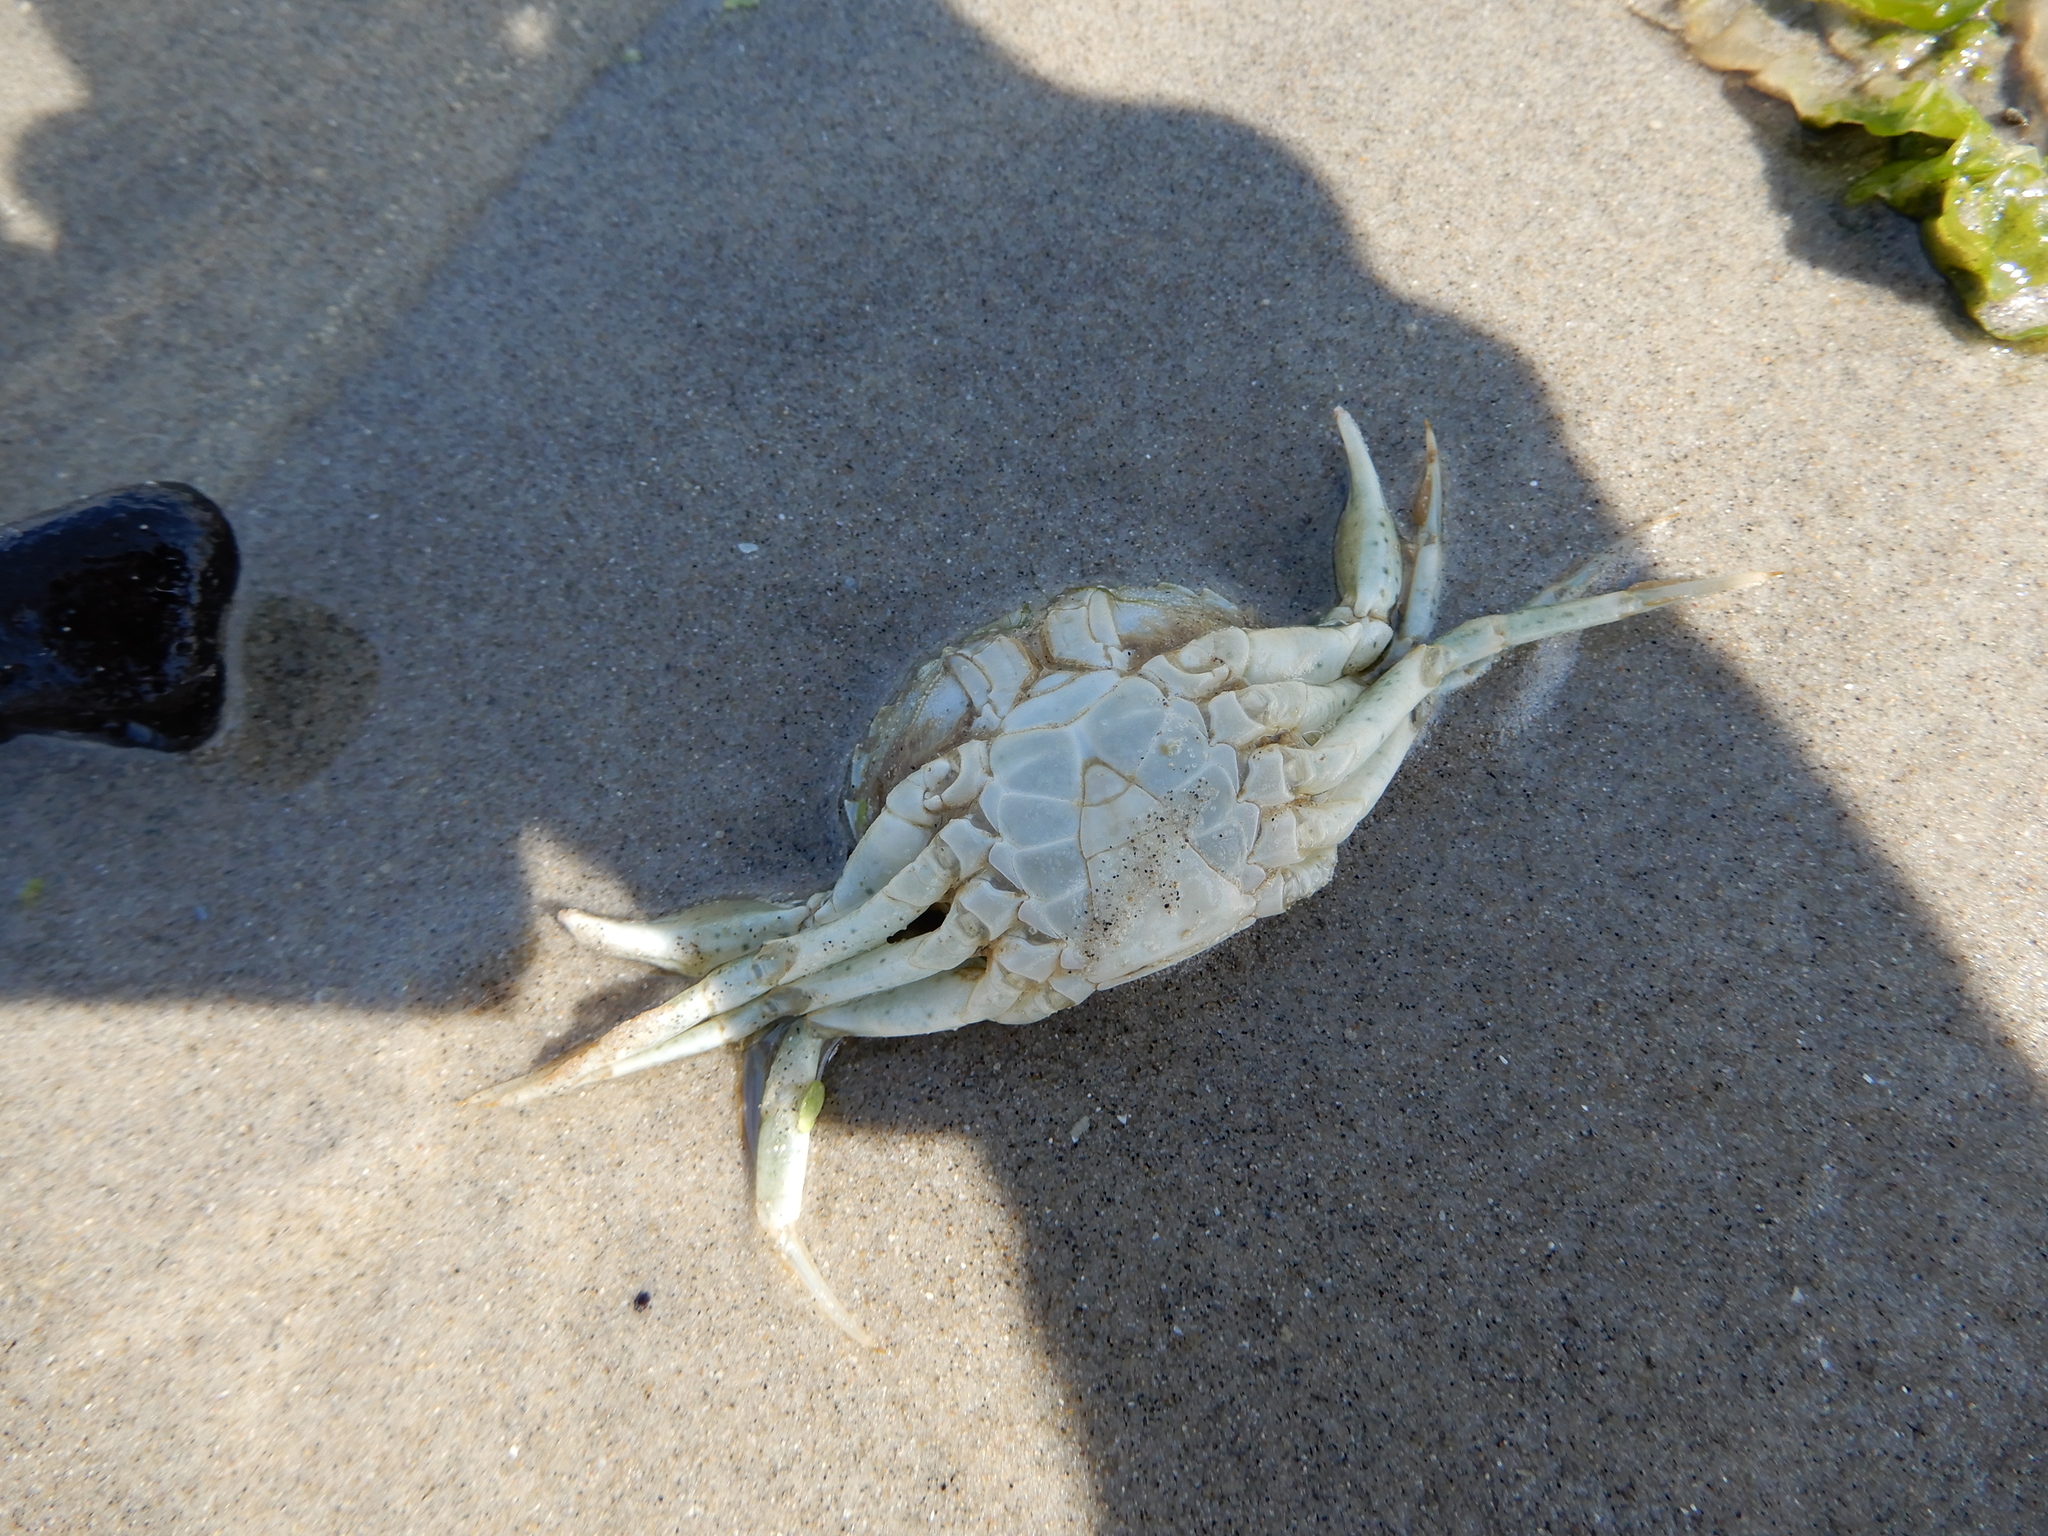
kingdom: Animalia
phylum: Arthropoda
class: Malacostraca
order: Decapoda
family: Carcinidae
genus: Carcinus
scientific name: Carcinus maenas
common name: European green crab
